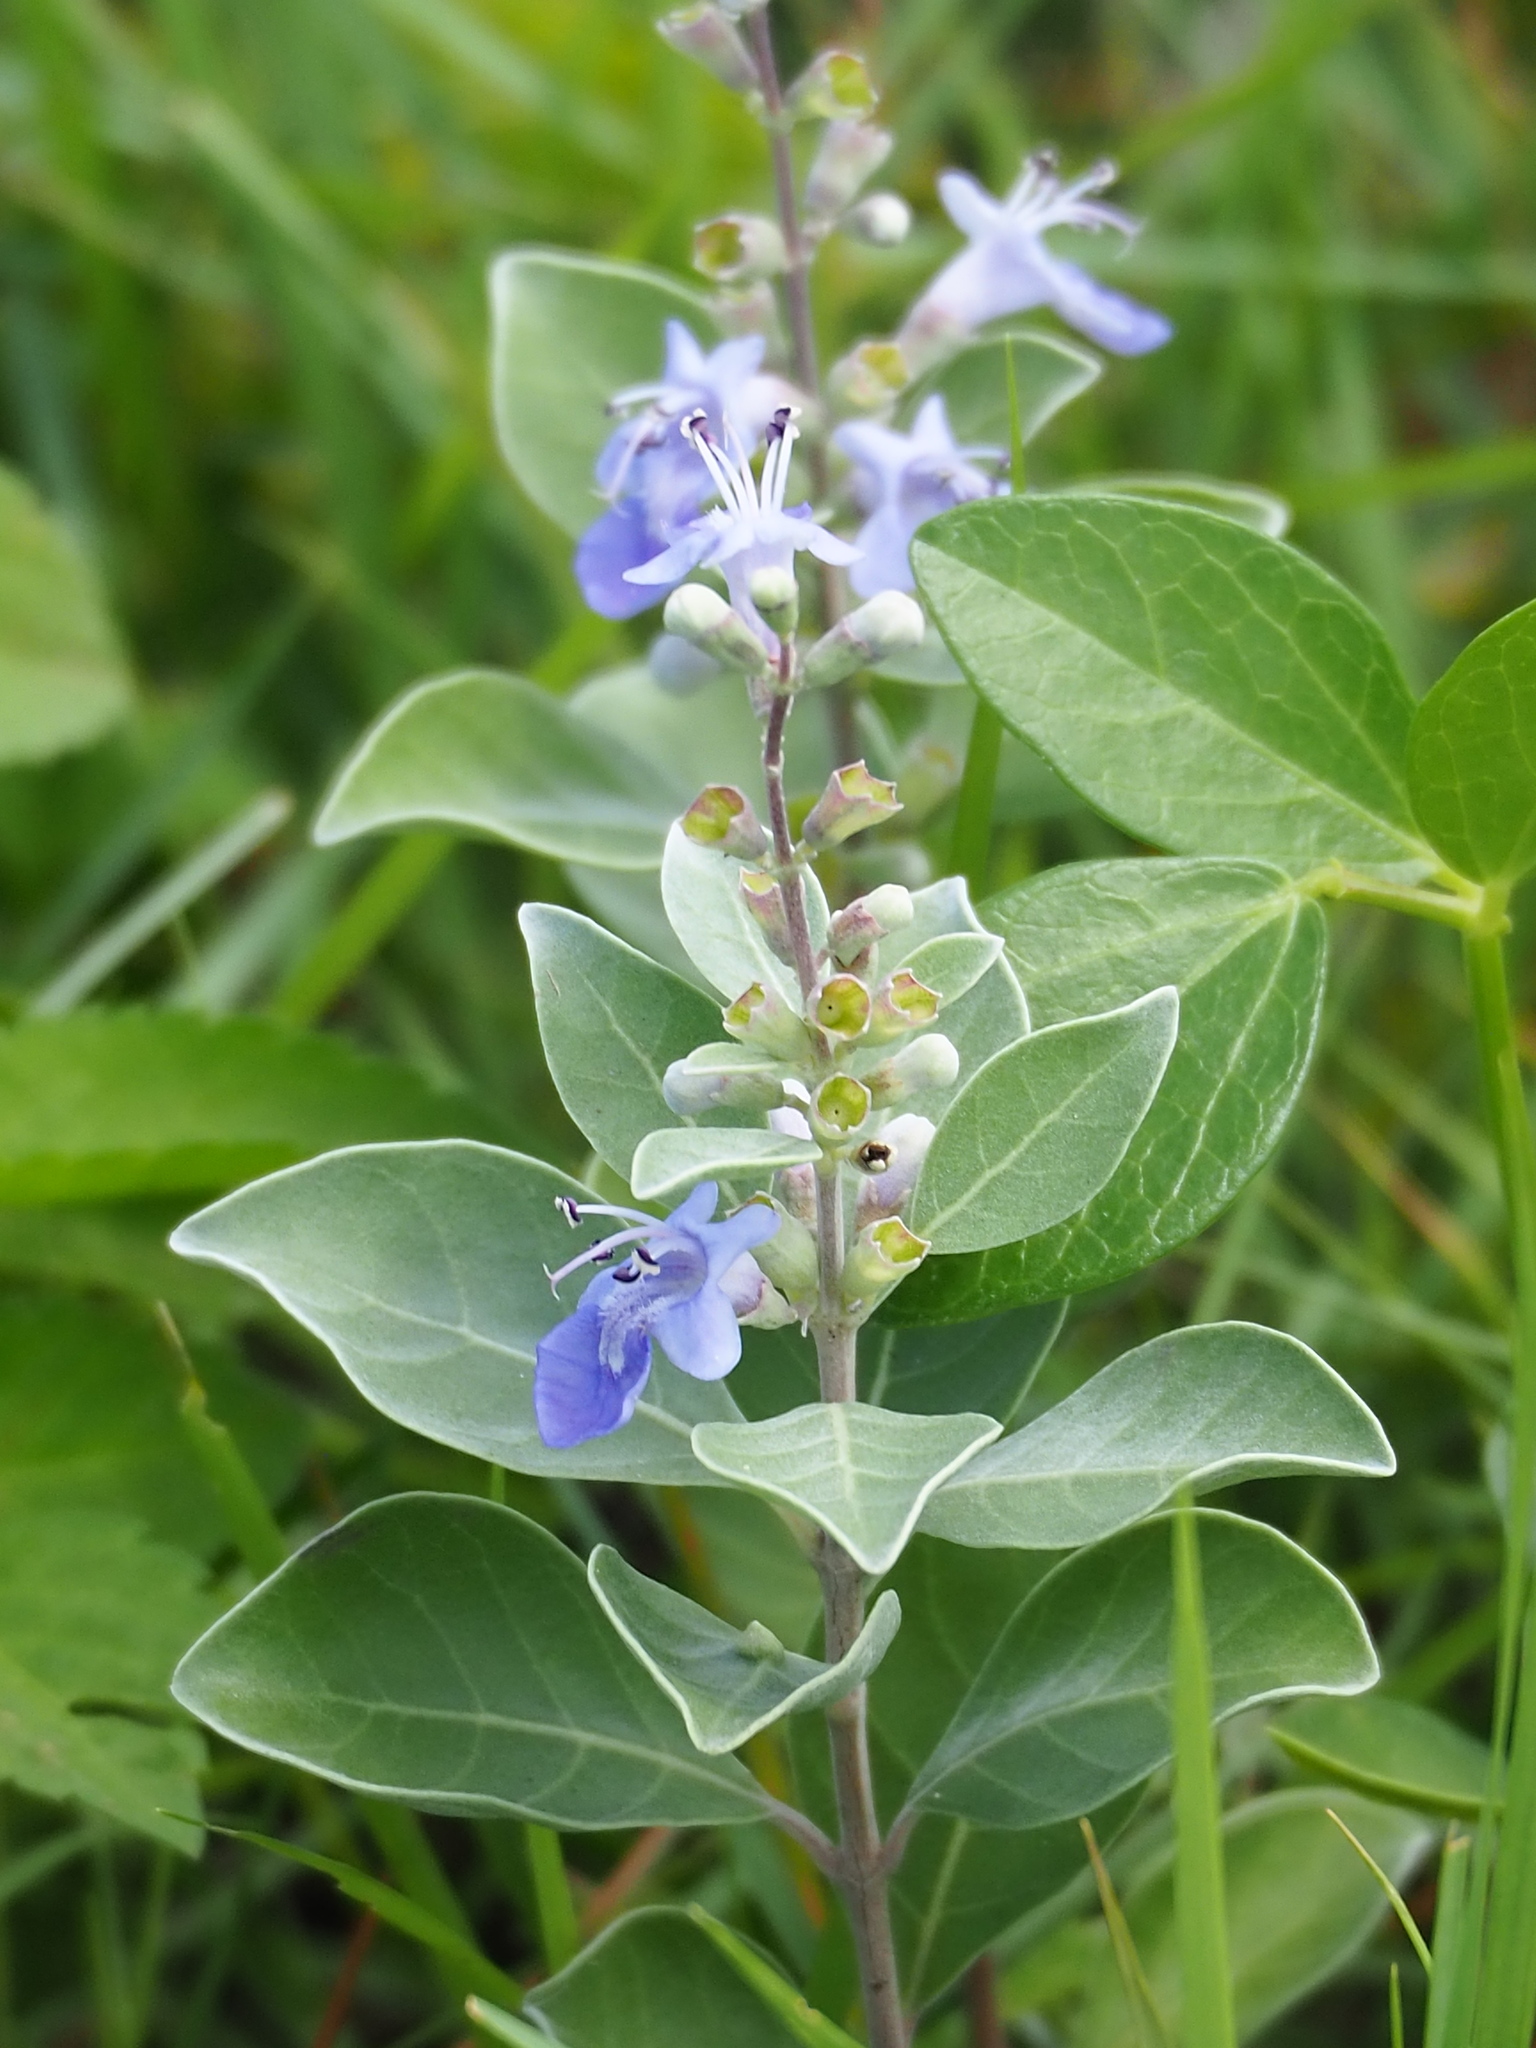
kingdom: Plantae
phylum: Tracheophyta
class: Magnoliopsida
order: Lamiales
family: Lamiaceae
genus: Vitex
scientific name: Vitex rotundifolia
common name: Beach vitex
